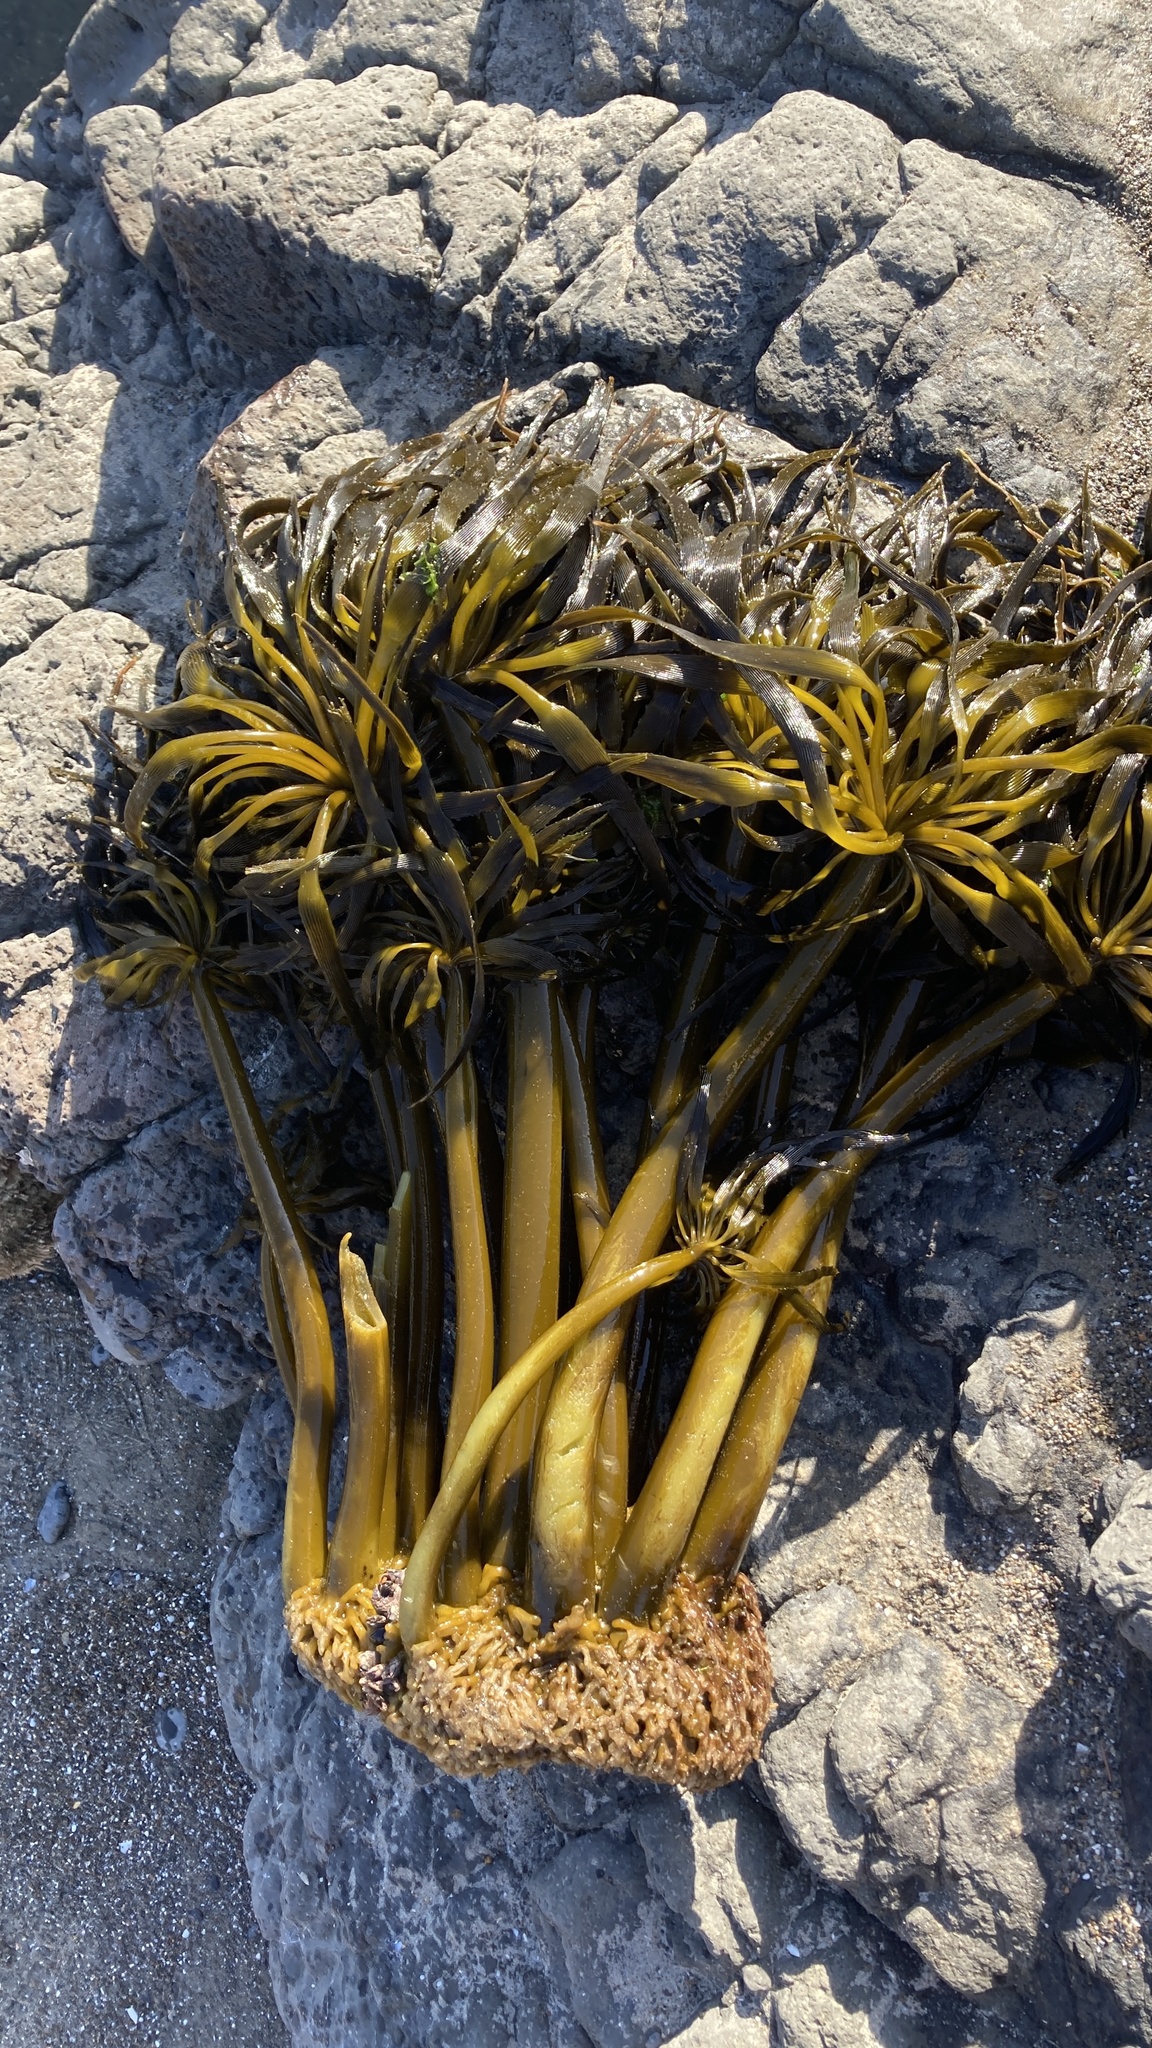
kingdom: Chromista
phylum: Ochrophyta
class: Phaeophyceae
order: Laminariales
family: Laminariaceae
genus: Postelsia
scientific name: Postelsia palmiformis
